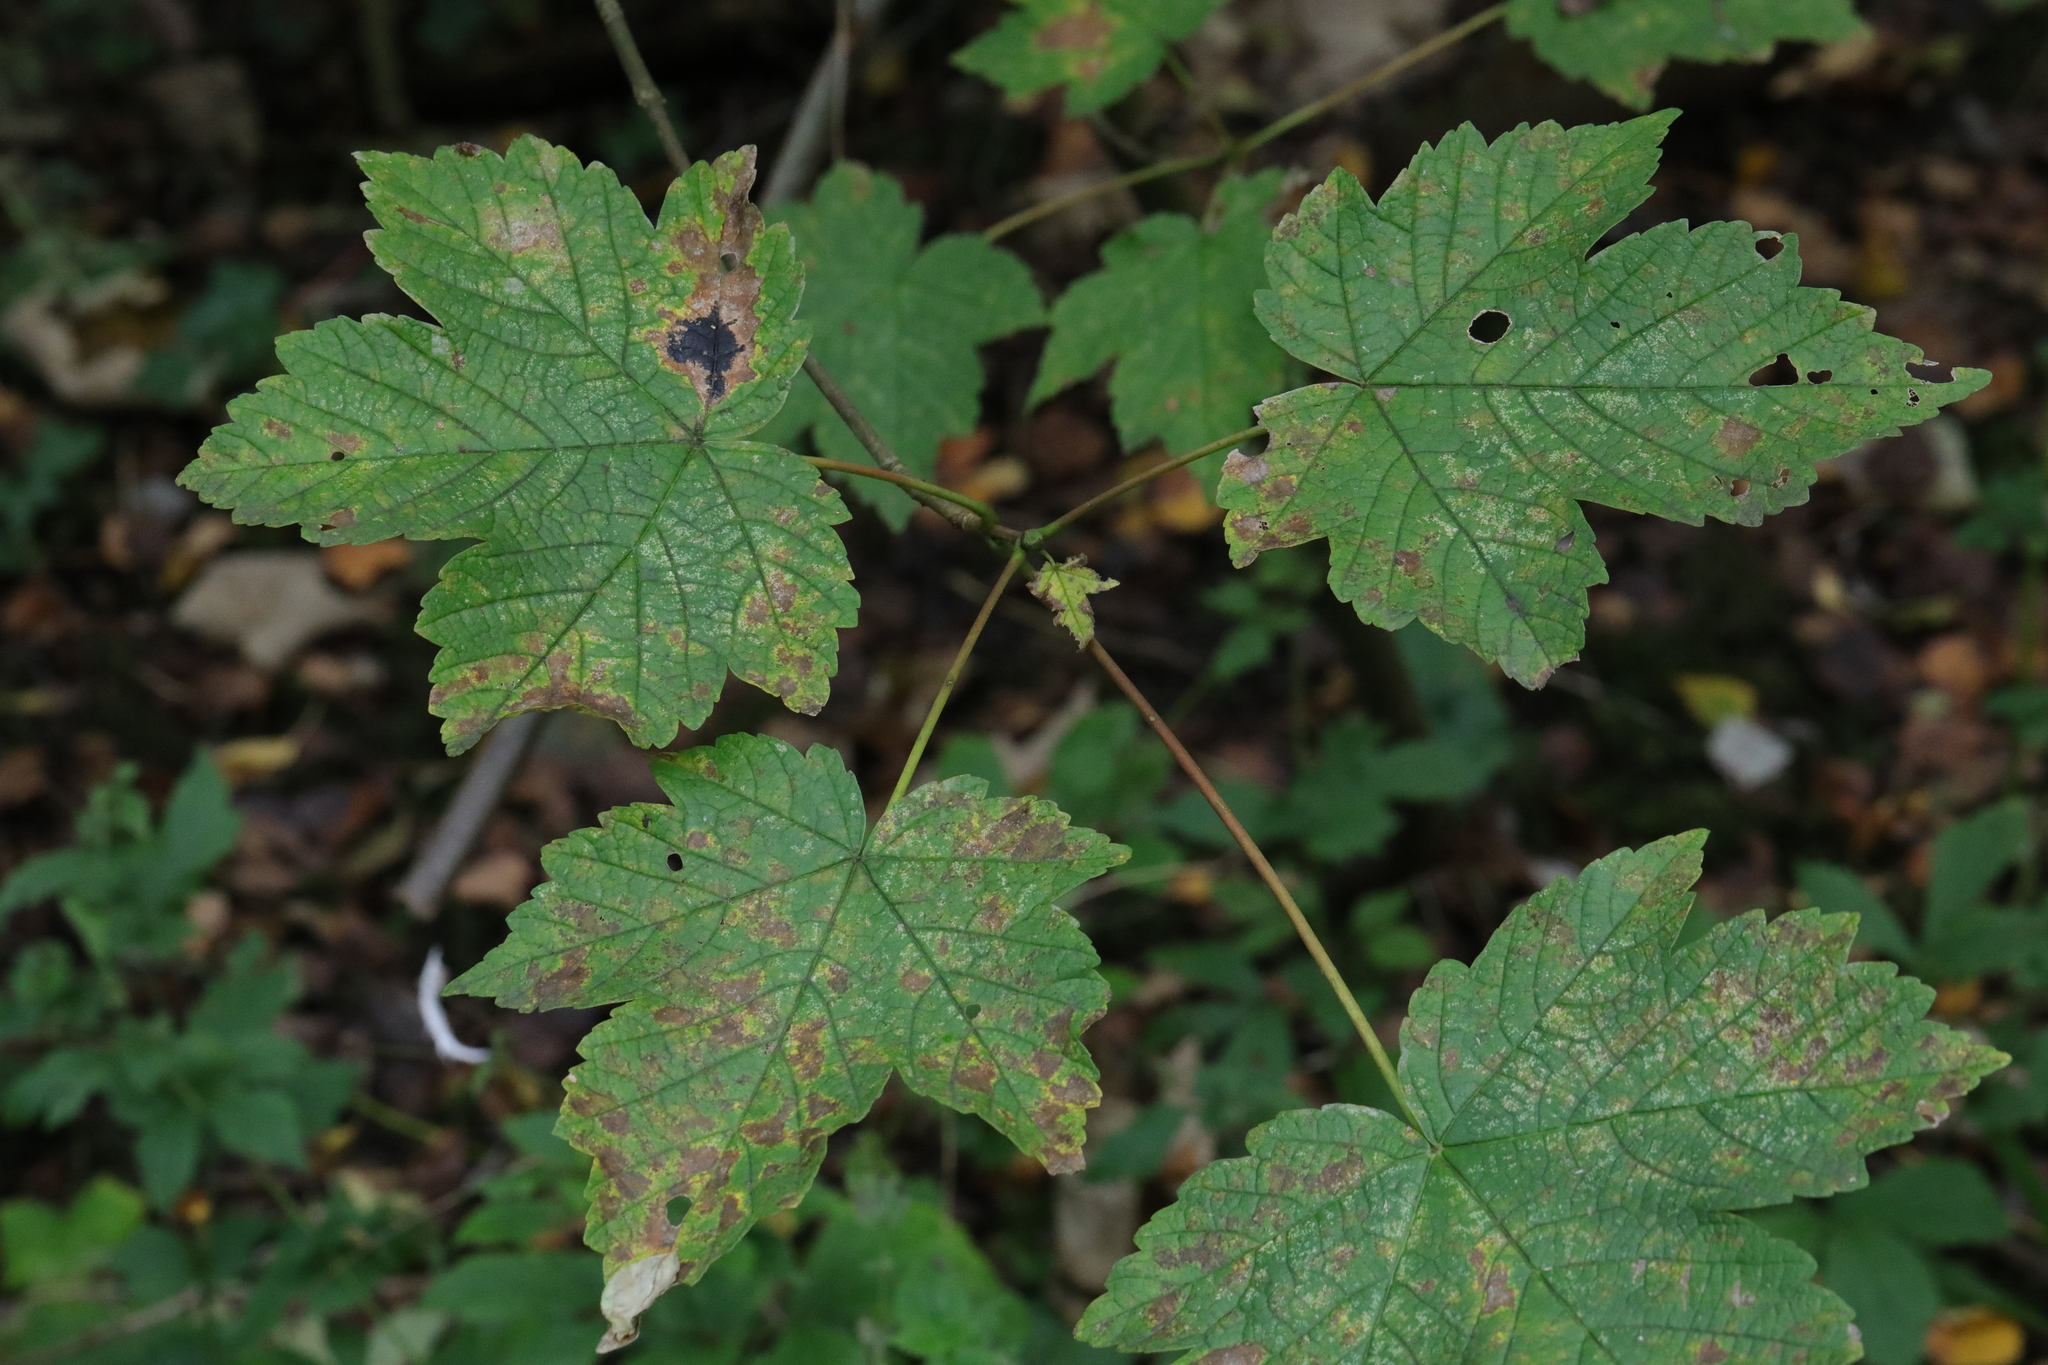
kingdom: Plantae
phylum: Tracheophyta
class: Magnoliopsida
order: Sapindales
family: Sapindaceae
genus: Acer
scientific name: Acer pseudoplatanus
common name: Sycamore
